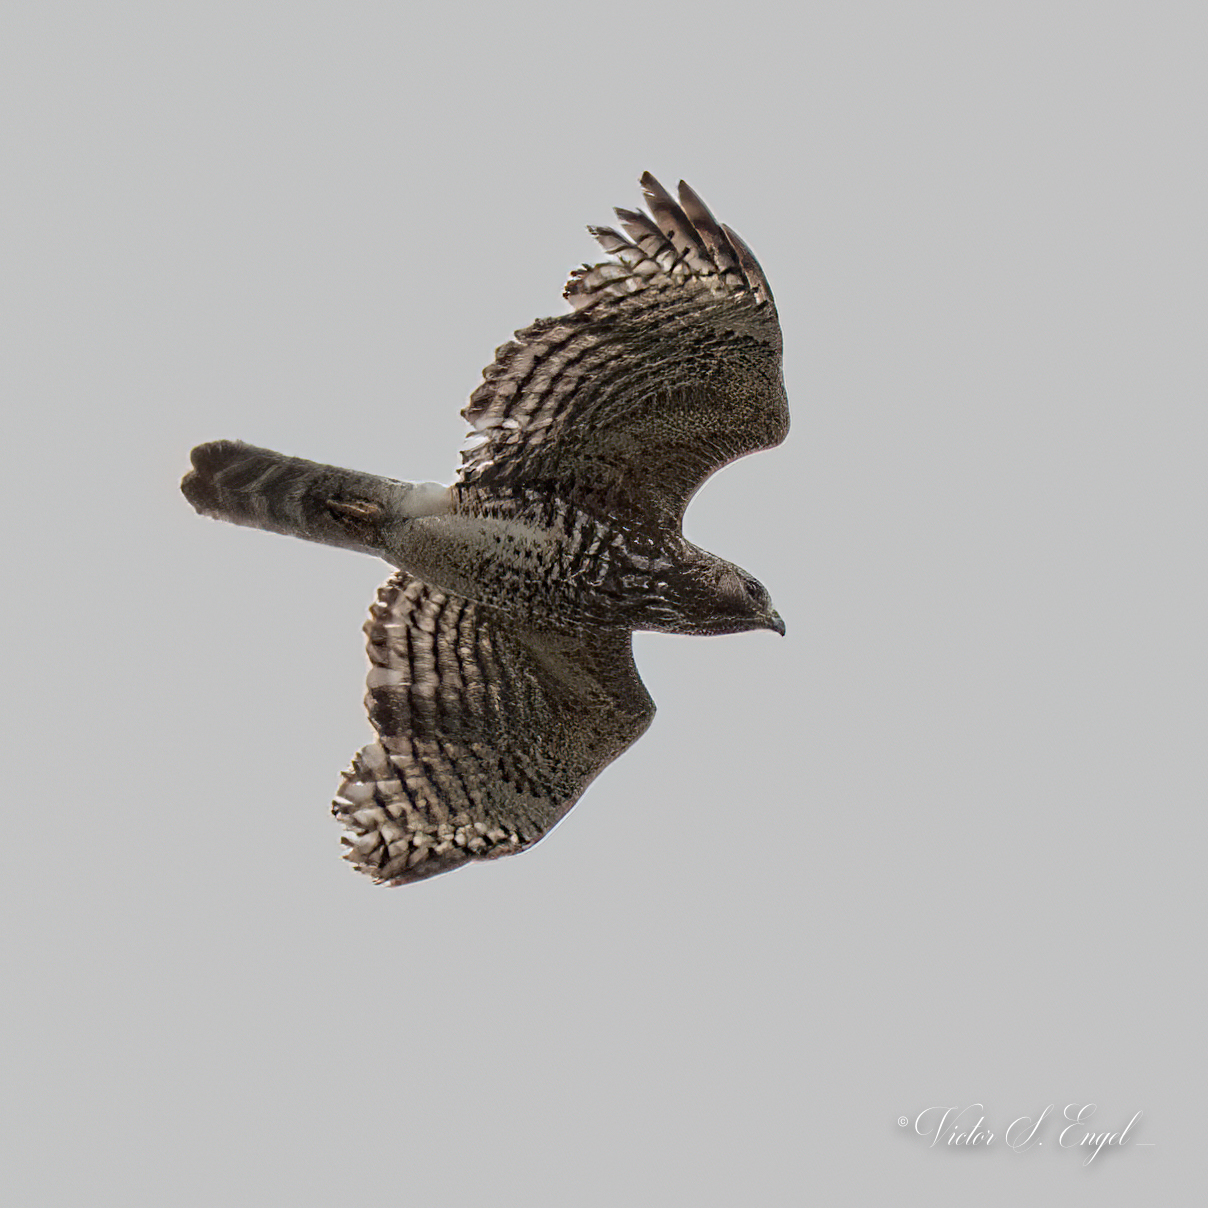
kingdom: Animalia
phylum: Chordata
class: Aves
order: Accipitriformes
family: Accipitridae
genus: Buteo
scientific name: Buteo lineatus
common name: Red-shouldered hawk
